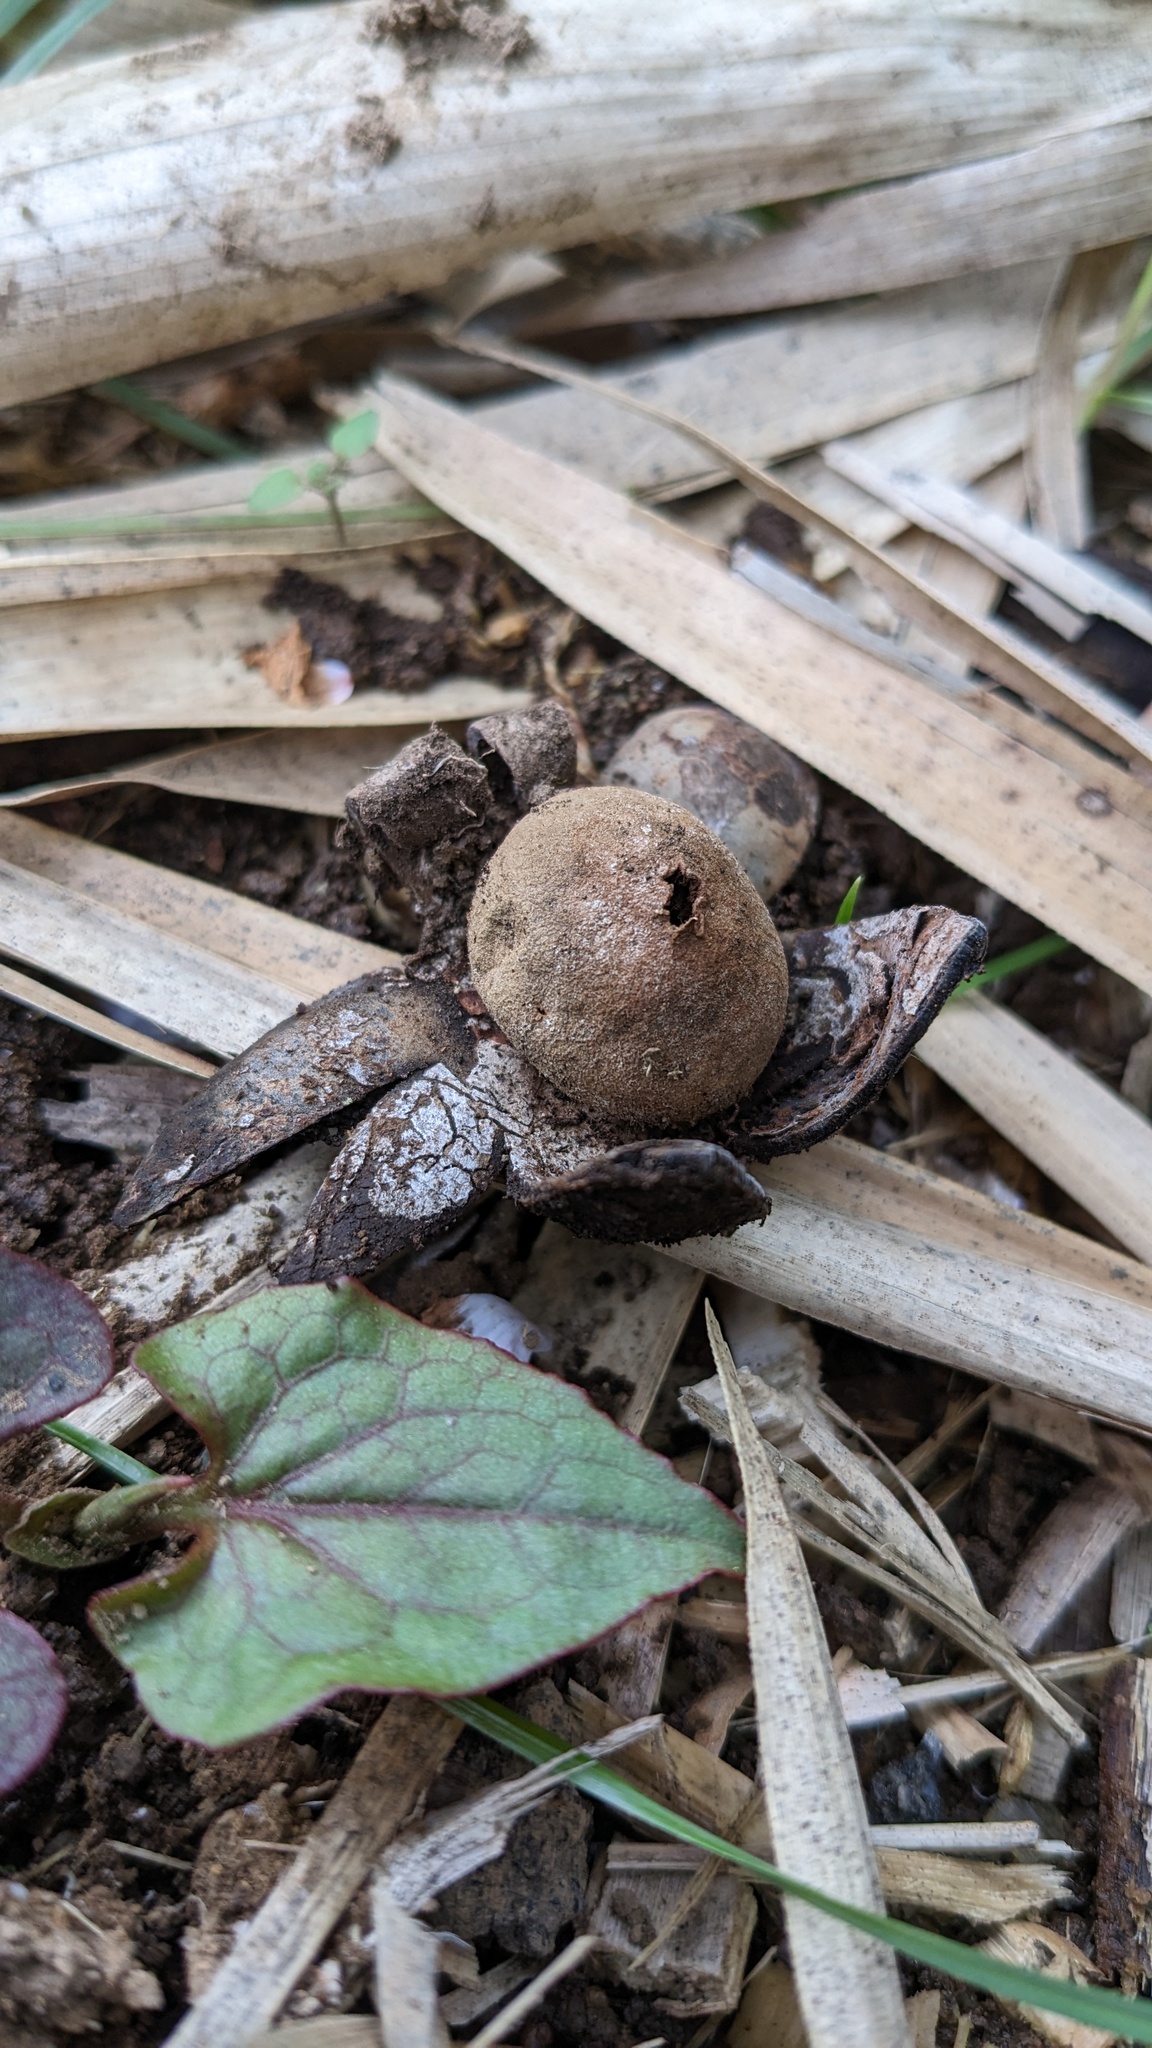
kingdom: Fungi
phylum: Basidiomycota
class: Agaricomycetes
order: Boletales
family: Diplocystidiaceae
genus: Astraeus
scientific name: Astraeus hygrometricus
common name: Barometer earthstar
